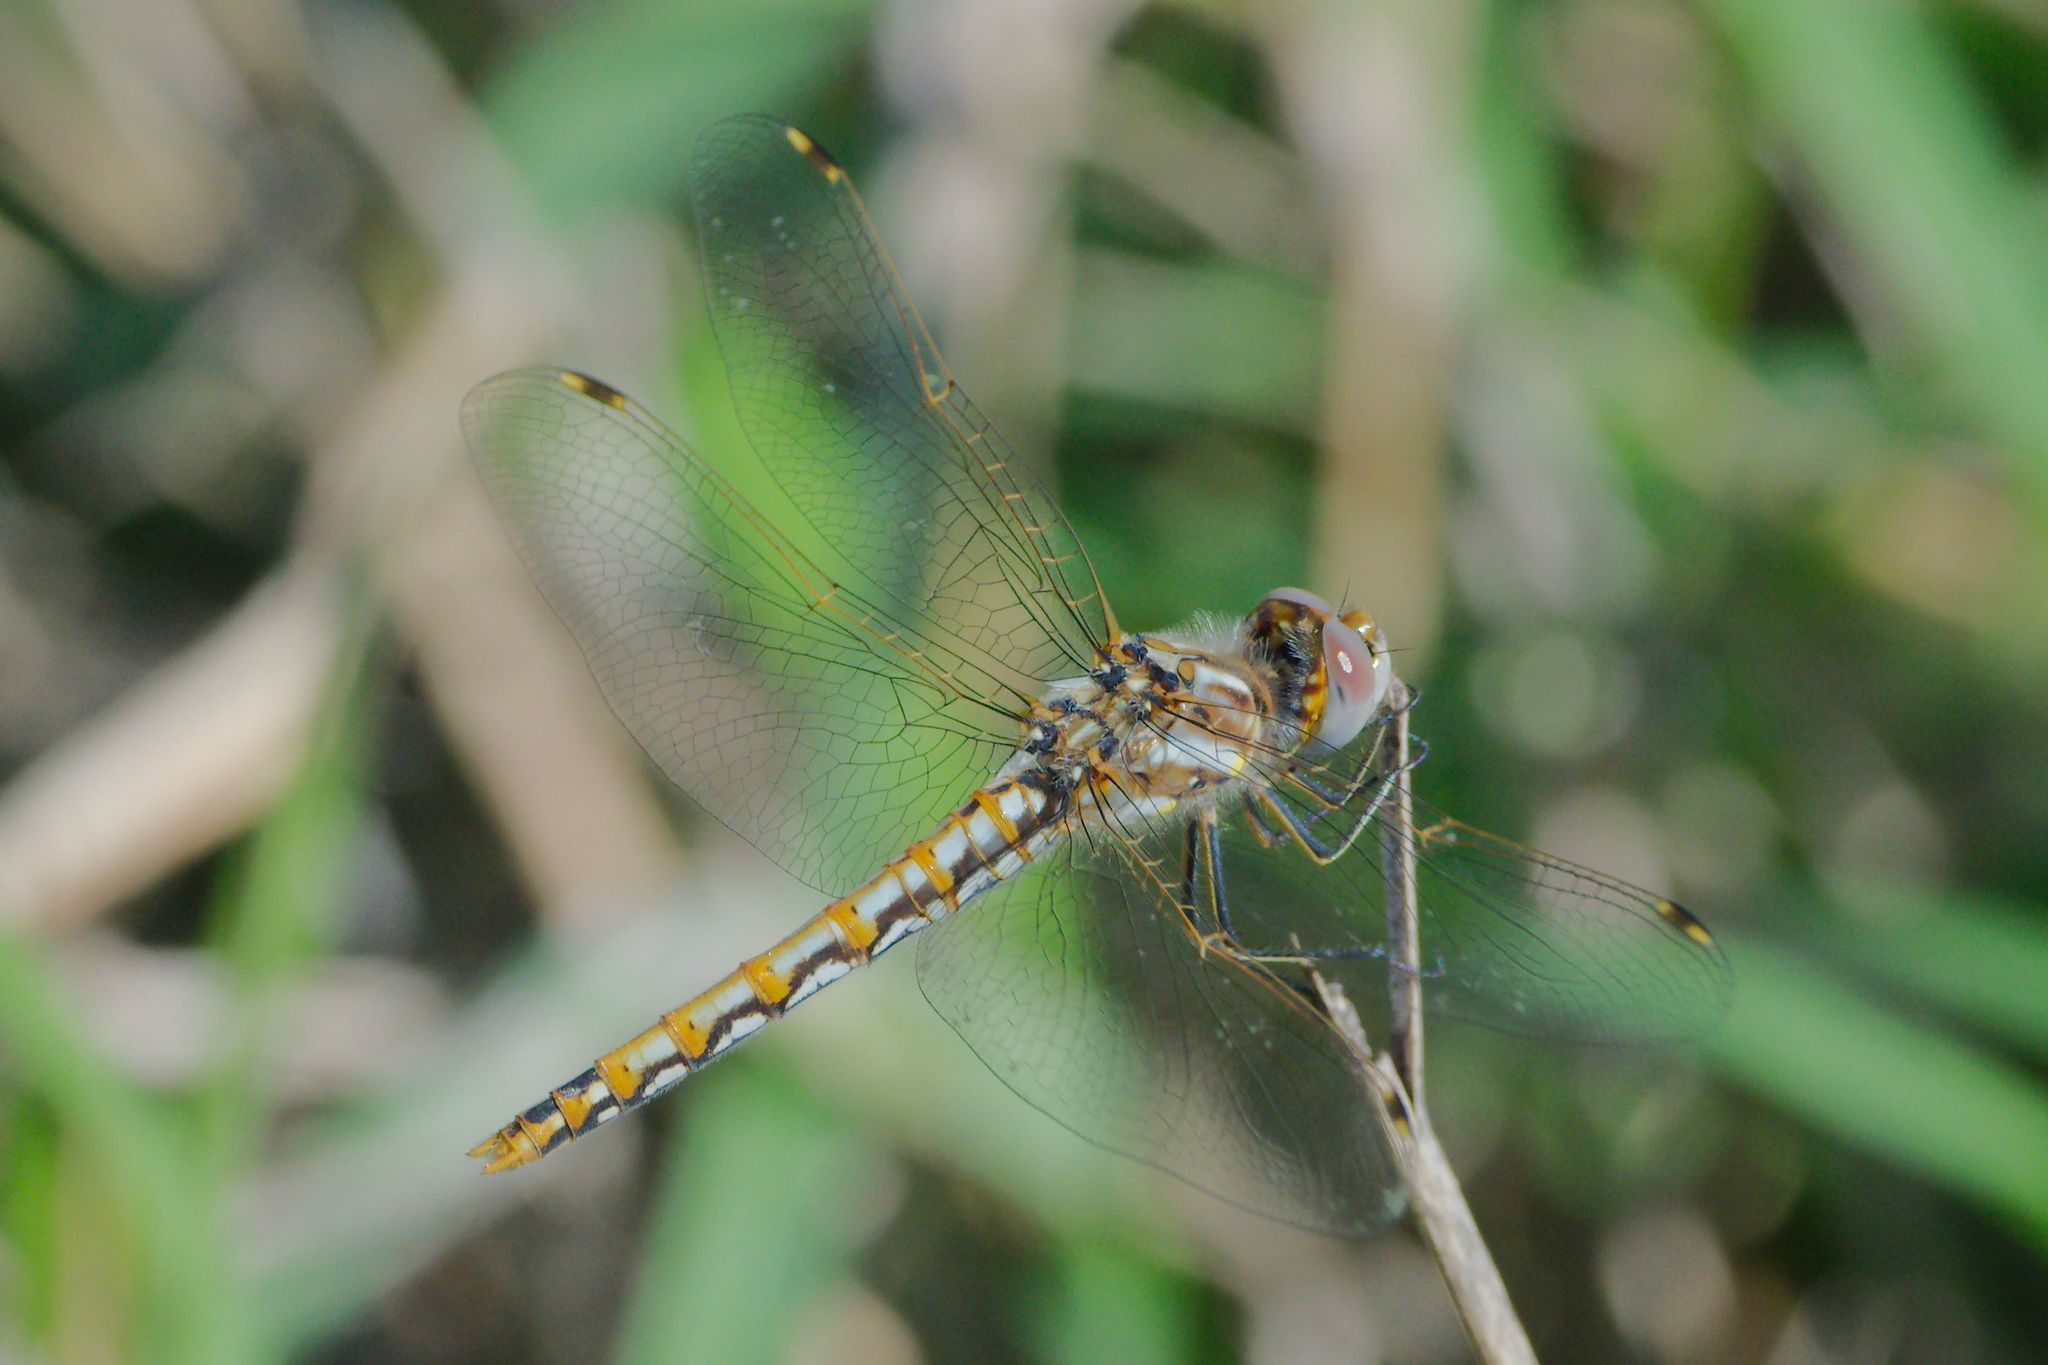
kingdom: Animalia
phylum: Arthropoda
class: Insecta
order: Odonata
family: Libellulidae
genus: Sympetrum
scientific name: Sympetrum corruptum
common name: Variegated meadowhawk
